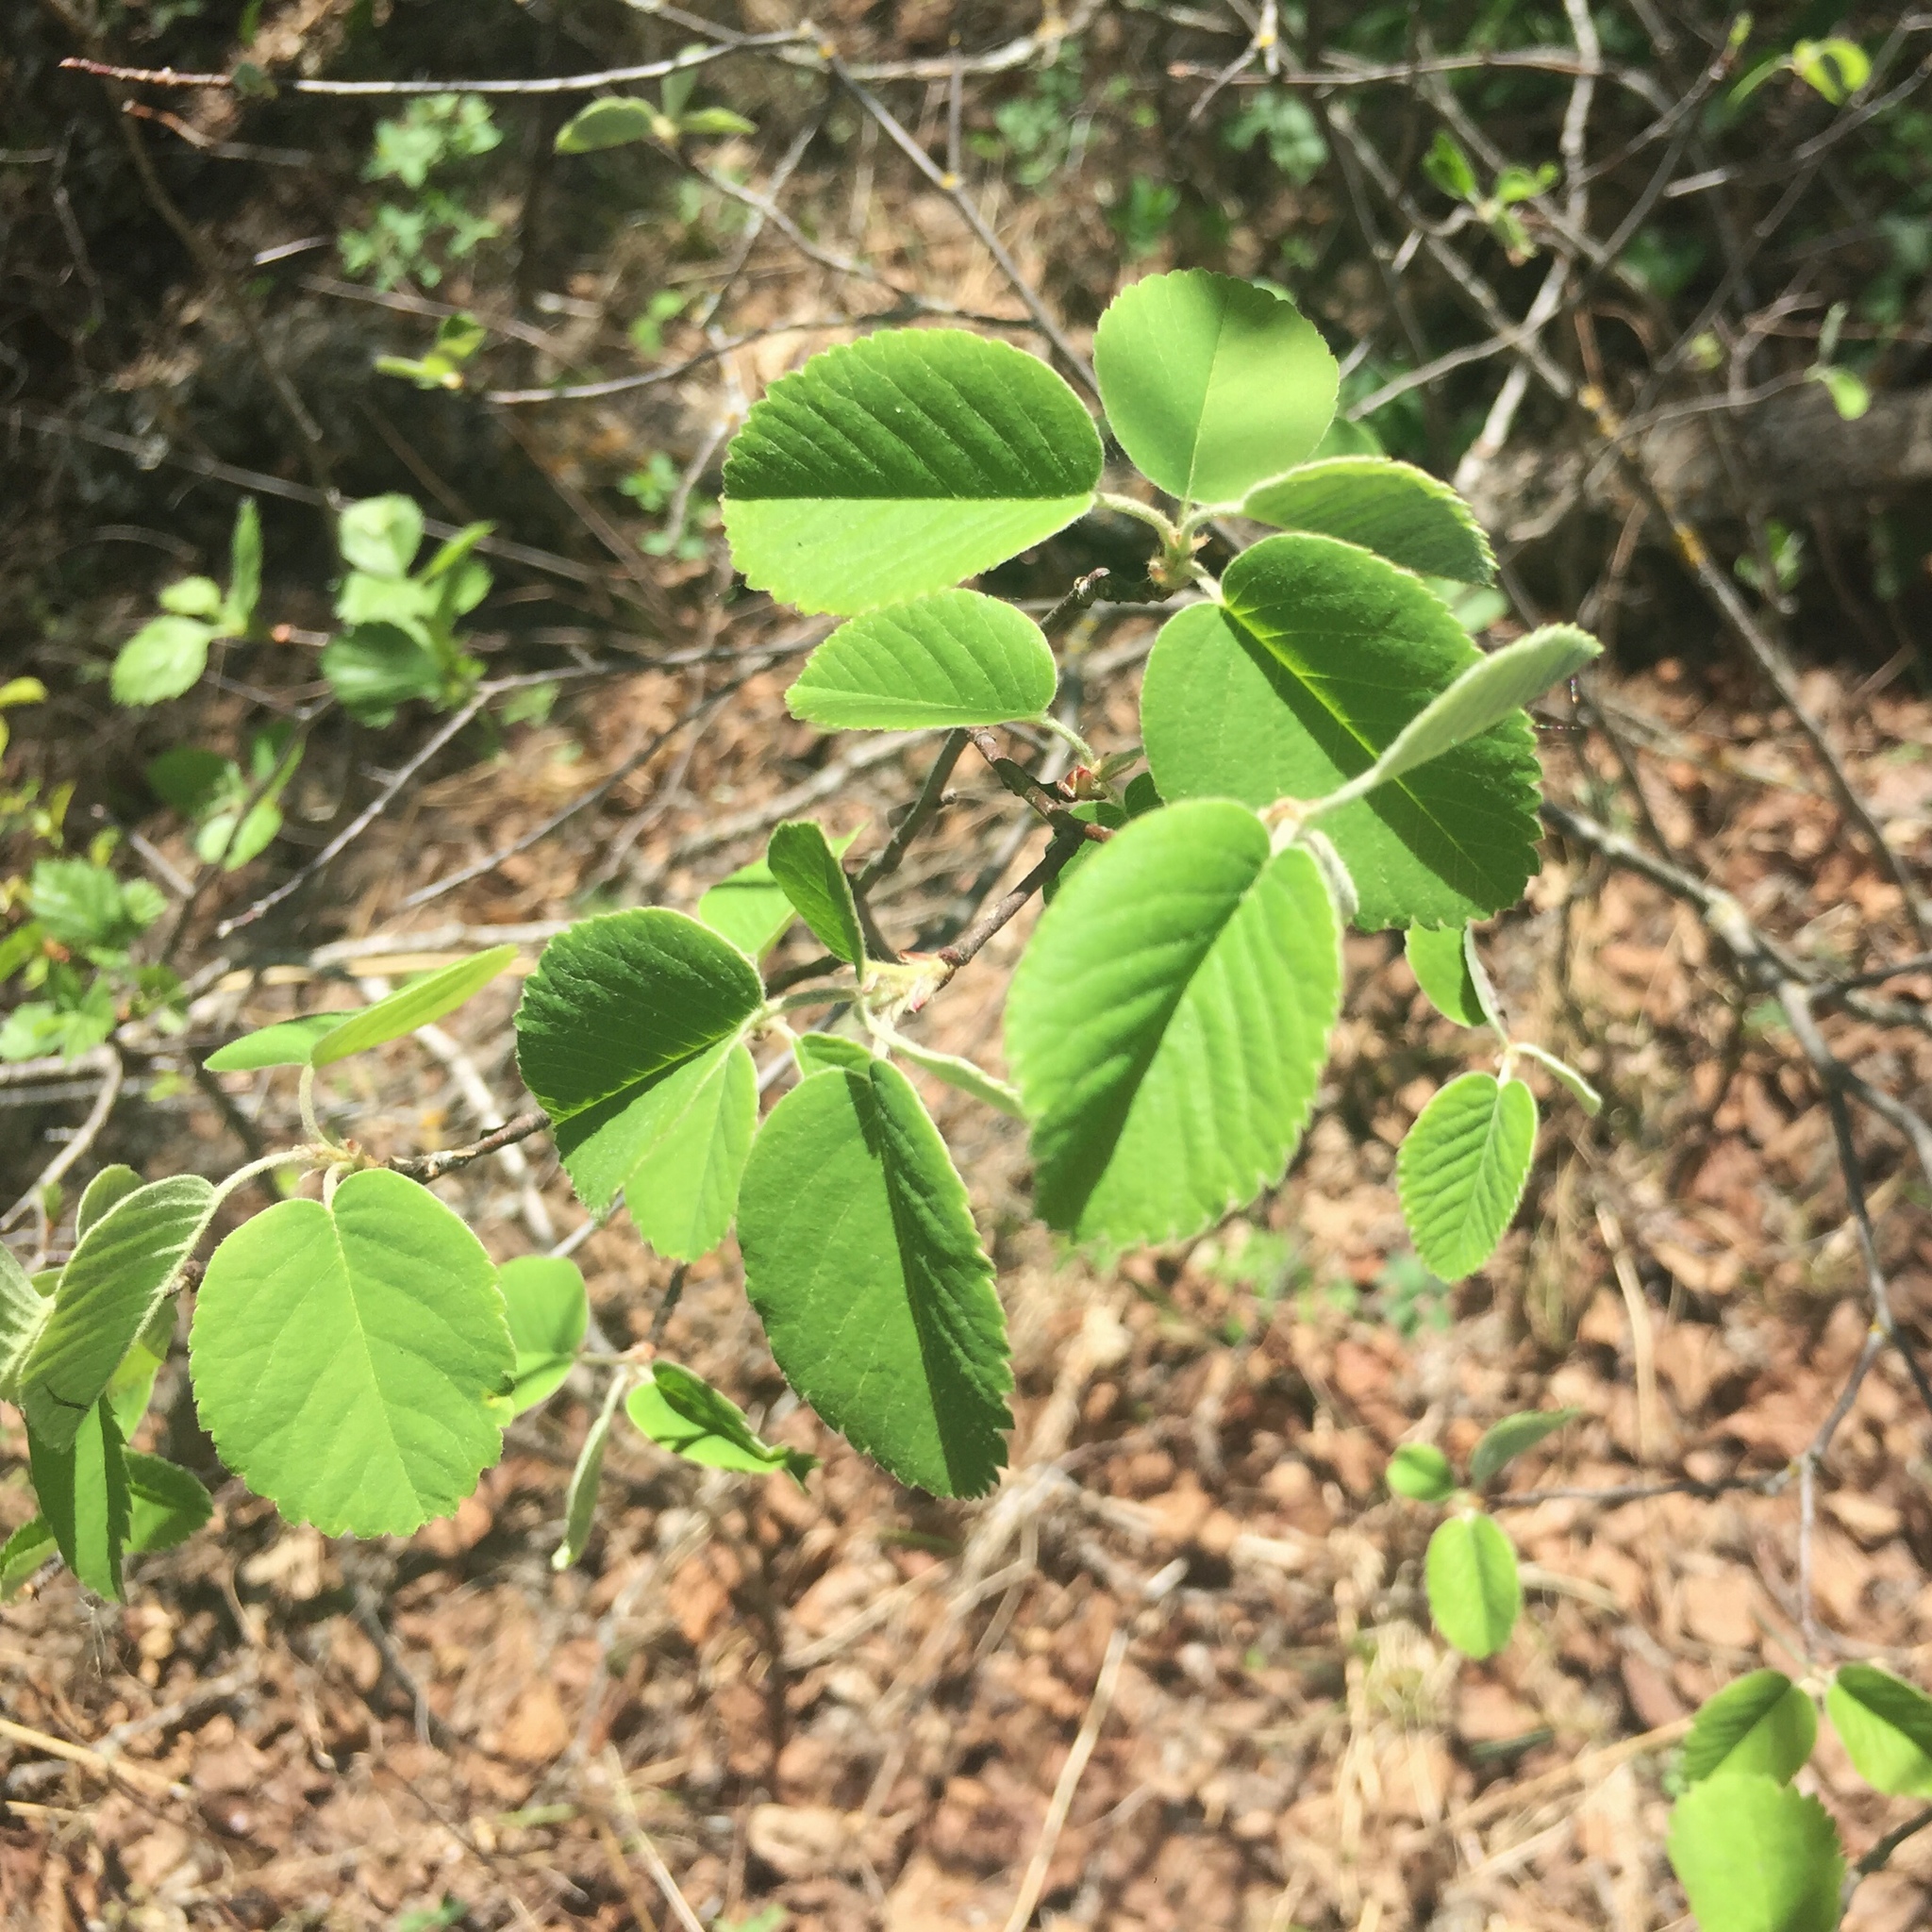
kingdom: Plantae
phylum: Tracheophyta
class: Magnoliopsida
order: Rosales
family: Rosaceae
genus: Amelanchier
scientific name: Amelanchier alnifolia
